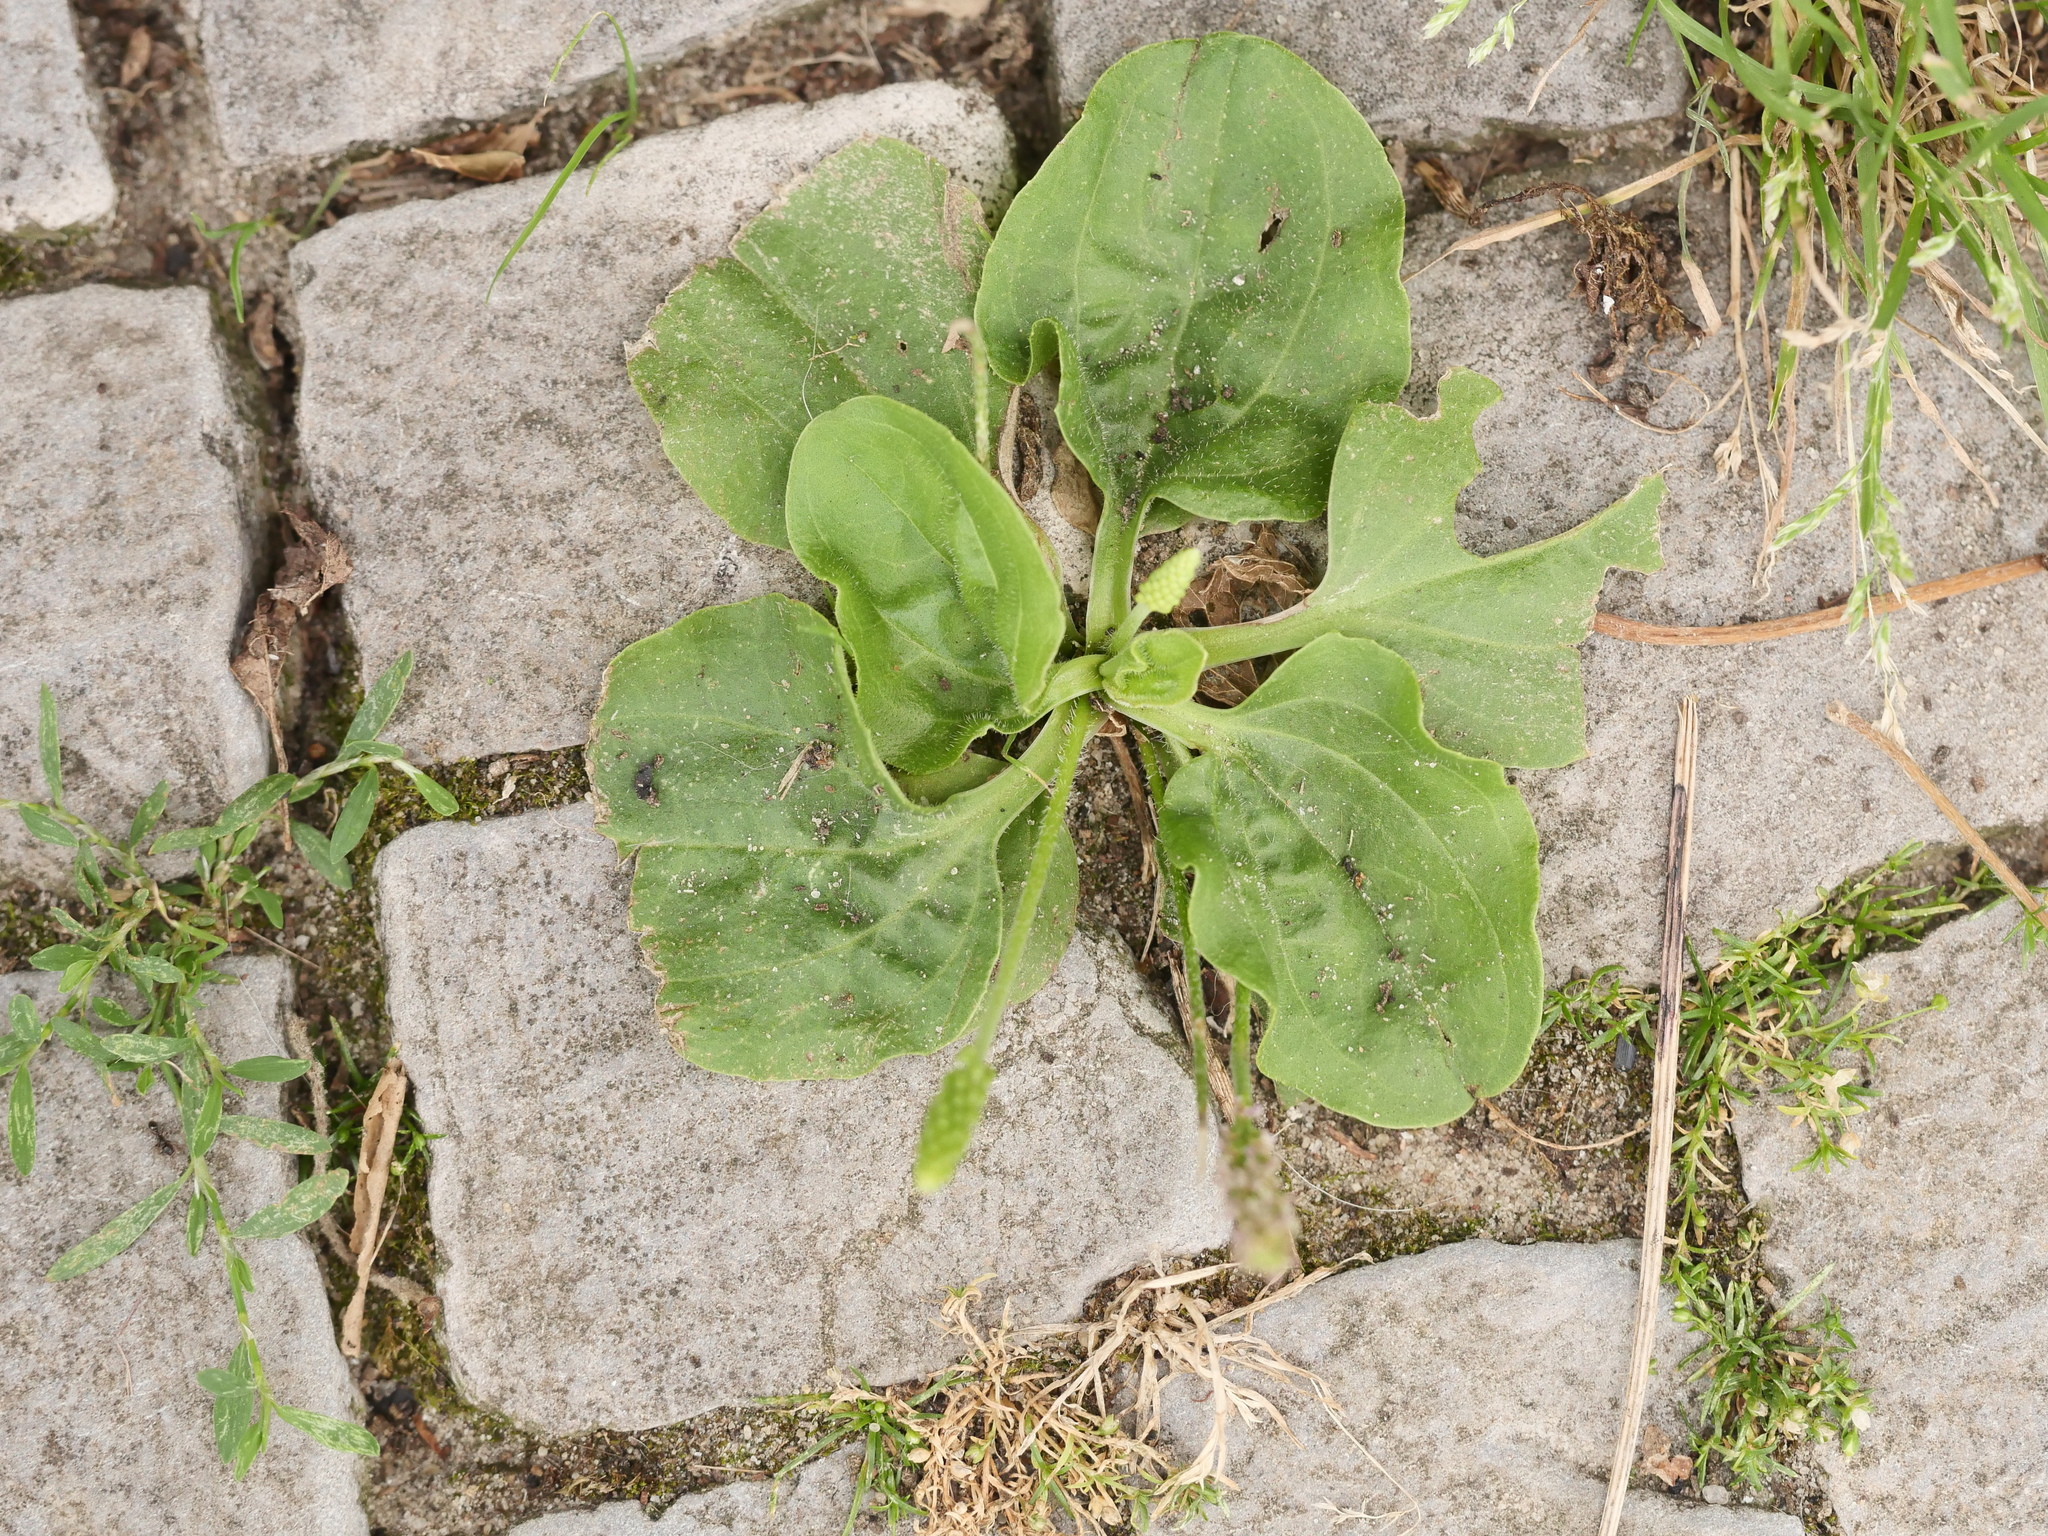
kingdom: Plantae
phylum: Tracheophyta
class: Magnoliopsida
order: Lamiales
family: Plantaginaceae
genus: Plantago
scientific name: Plantago major
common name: Common plantain
